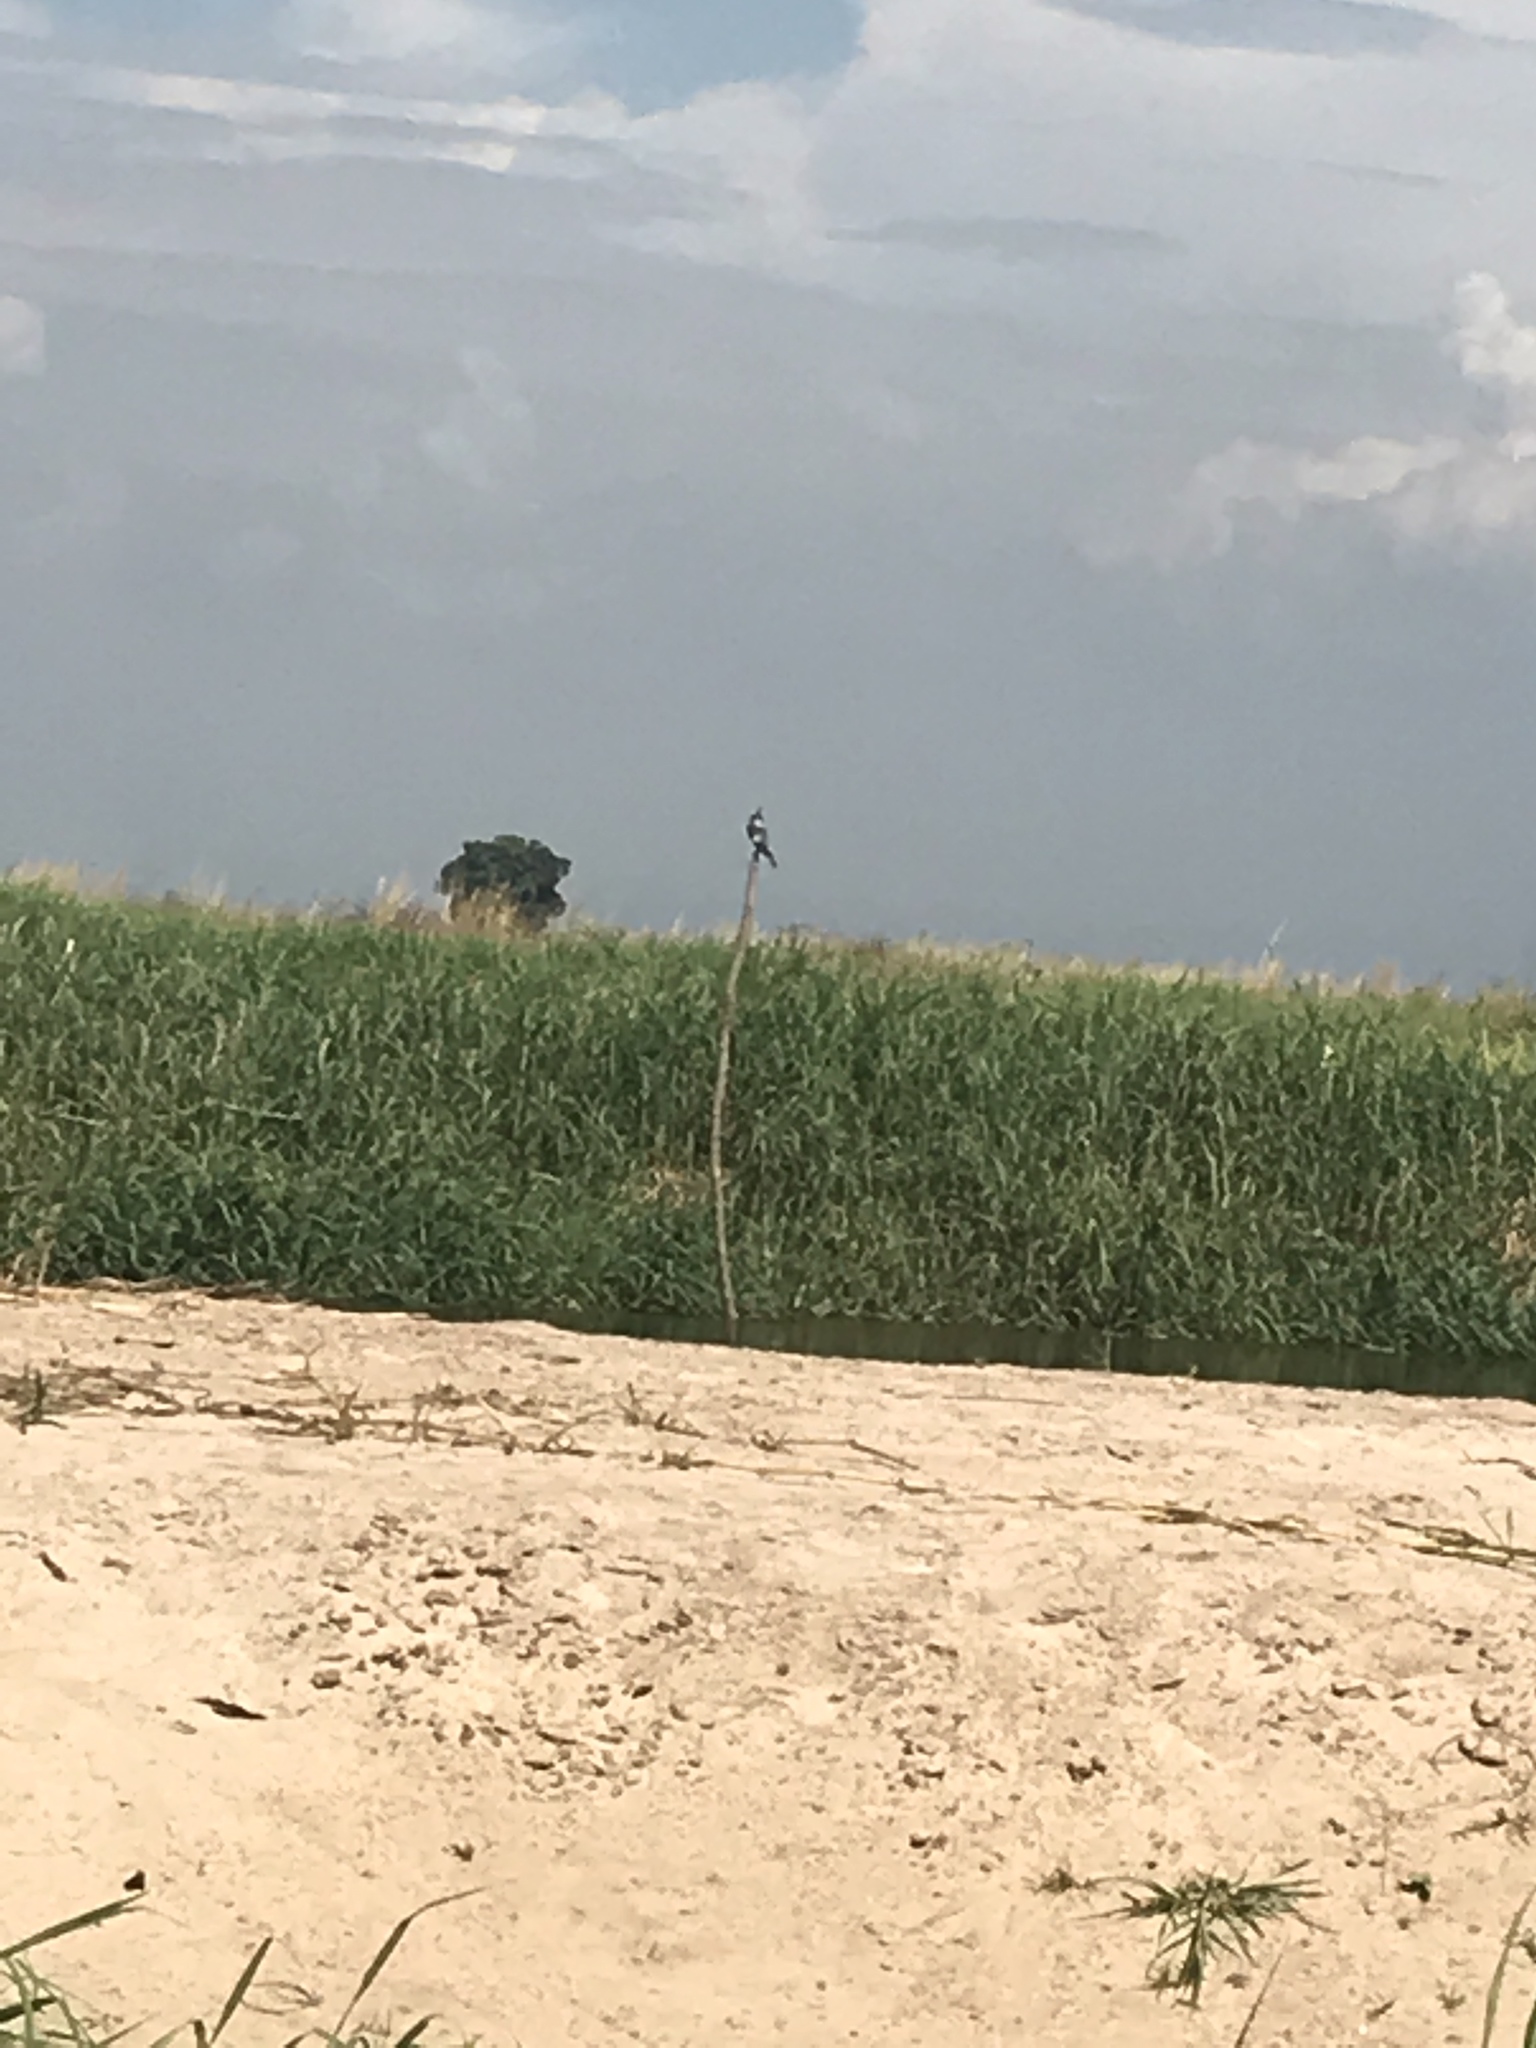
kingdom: Animalia
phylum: Chordata
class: Aves
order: Coraciiformes
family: Alcedinidae
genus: Ceryle
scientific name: Ceryle rudis
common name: Pied kingfisher
